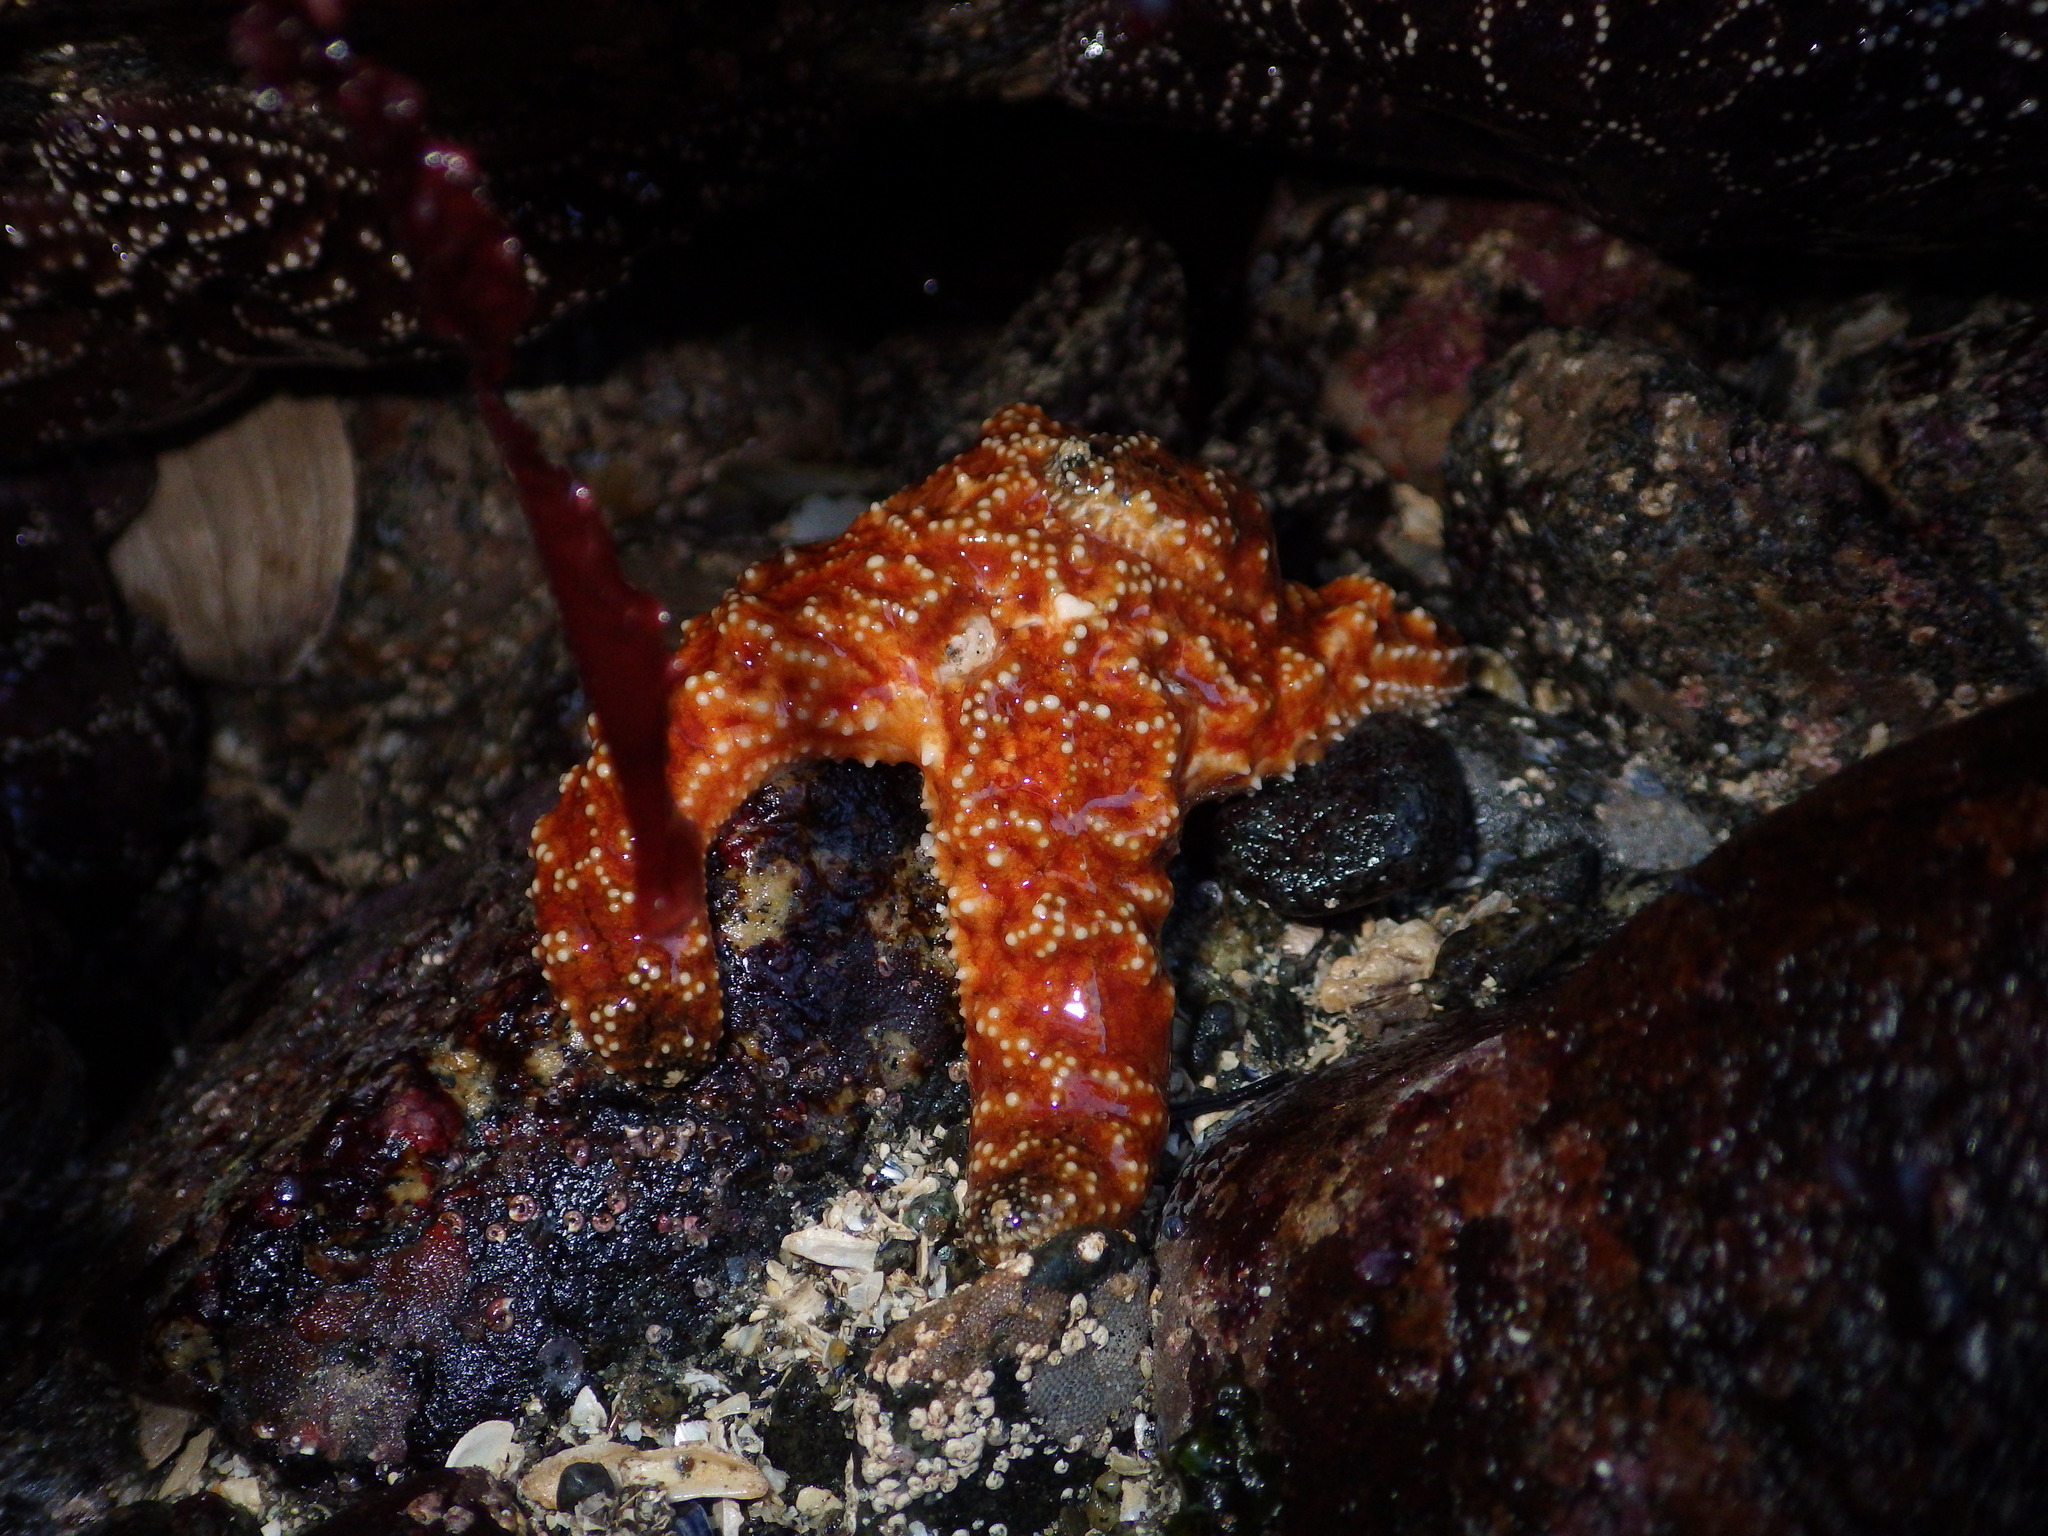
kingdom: Animalia
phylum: Echinodermata
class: Asteroidea
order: Forcipulatida
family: Asteriidae
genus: Pisaster
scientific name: Pisaster ochraceus
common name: Ochre stars
